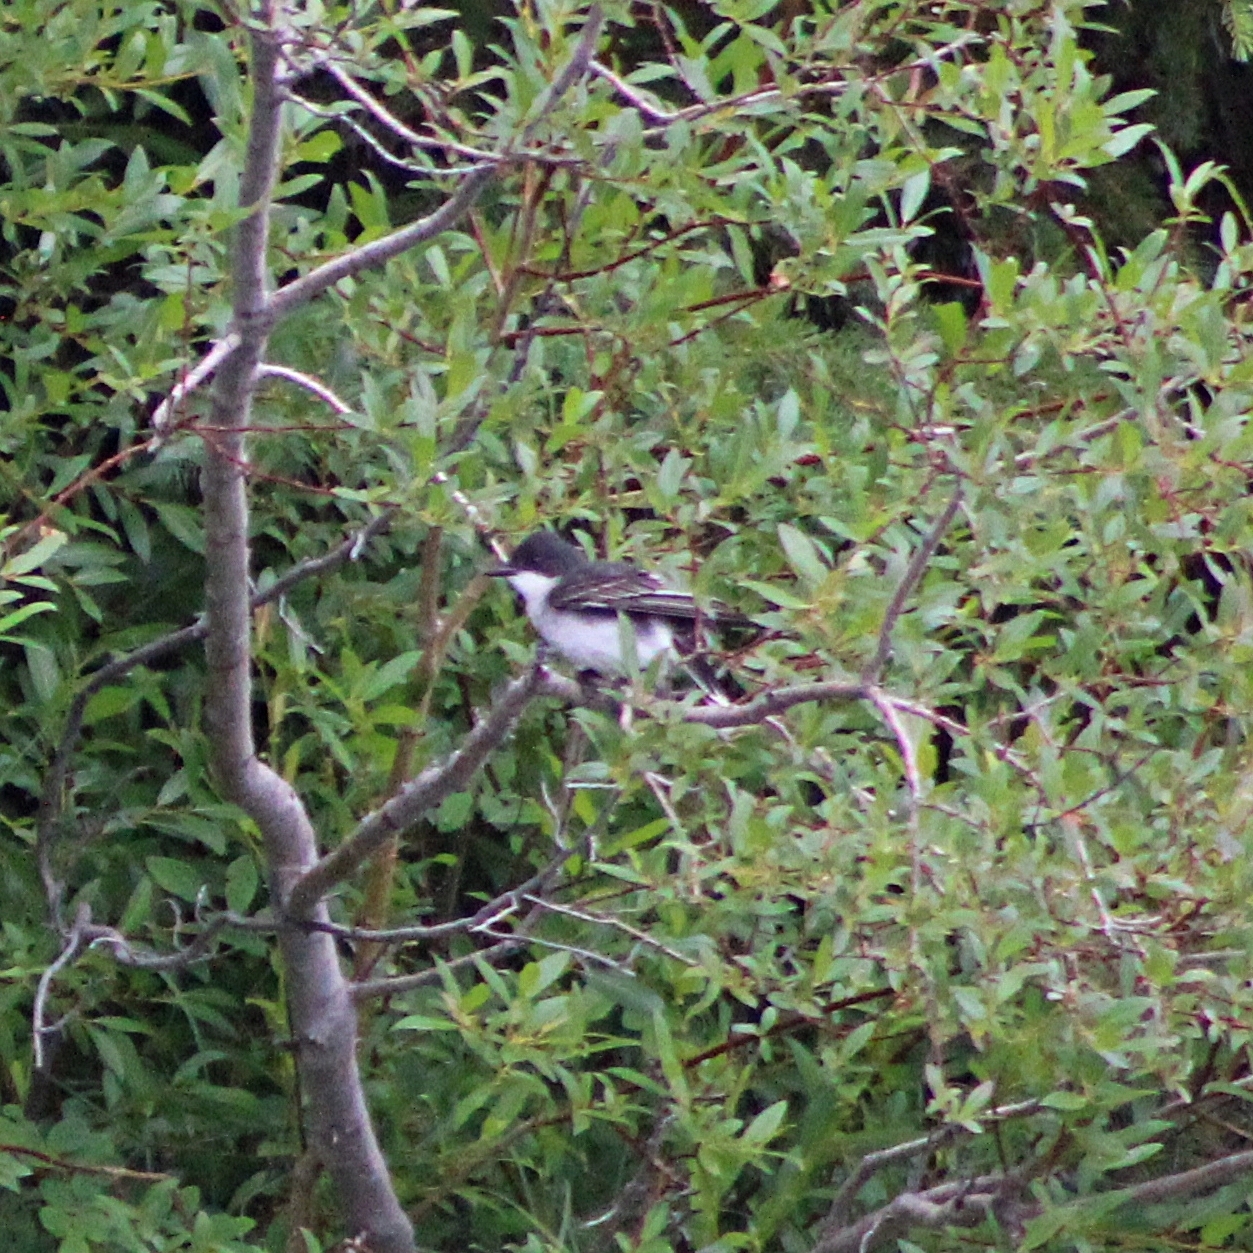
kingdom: Animalia
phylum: Chordata
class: Aves
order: Passeriformes
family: Tyrannidae
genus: Tyrannus
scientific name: Tyrannus tyrannus
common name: Eastern kingbird
